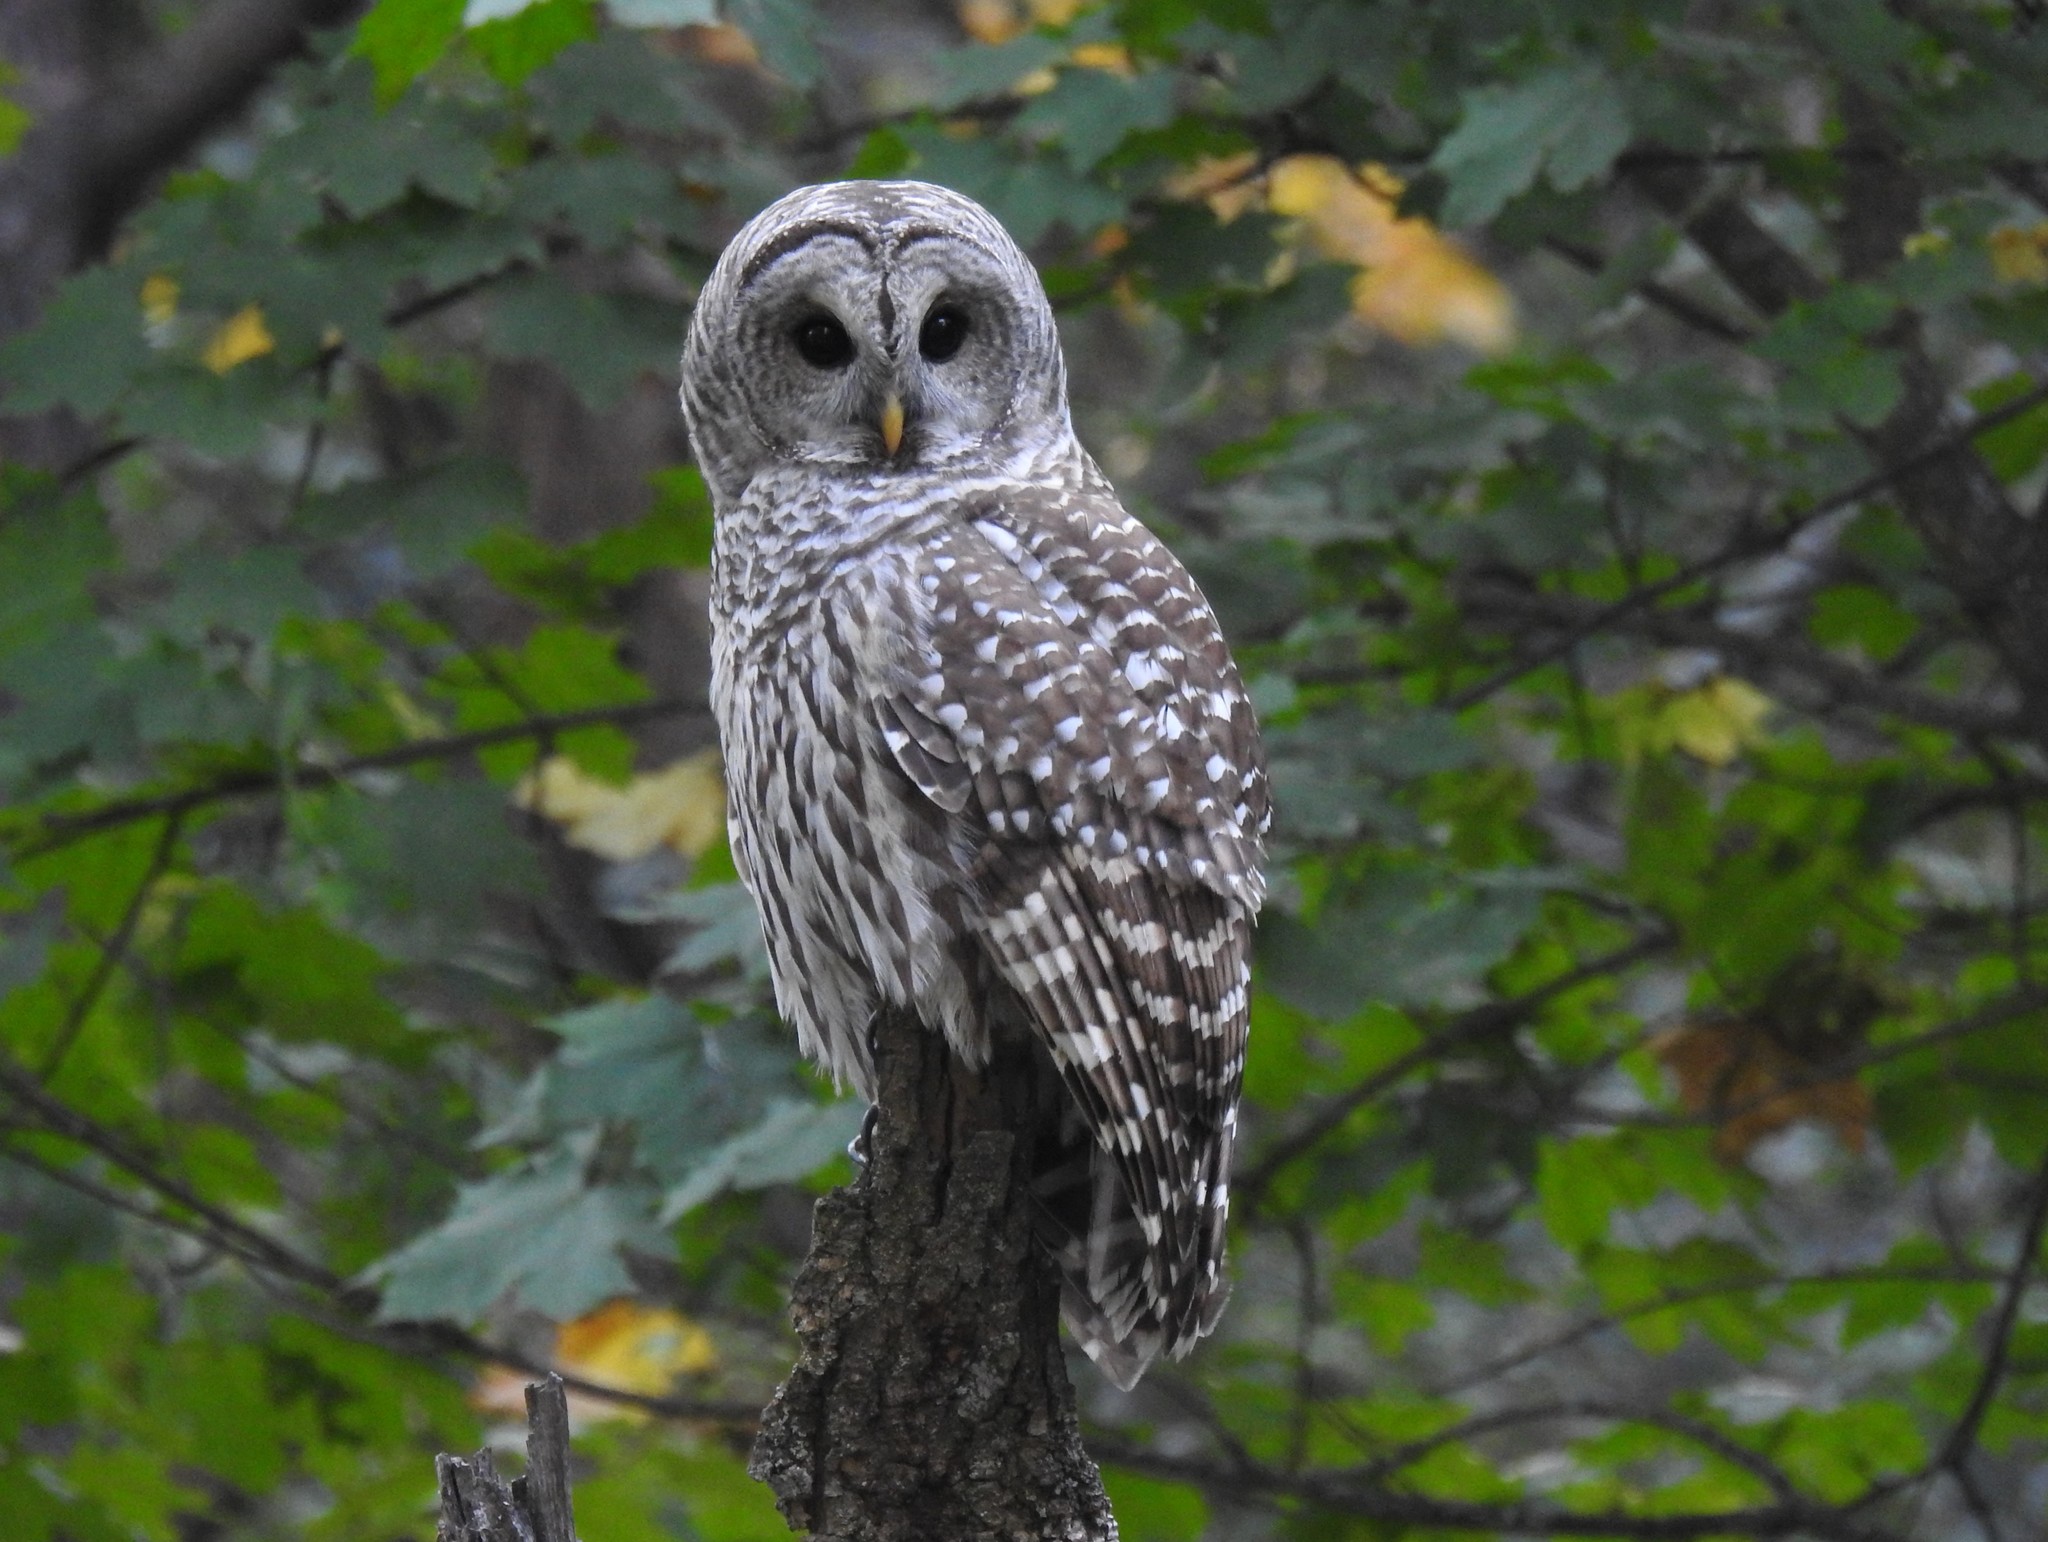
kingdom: Animalia
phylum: Chordata
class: Aves
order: Strigiformes
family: Strigidae
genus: Strix
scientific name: Strix varia
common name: Barred owl
